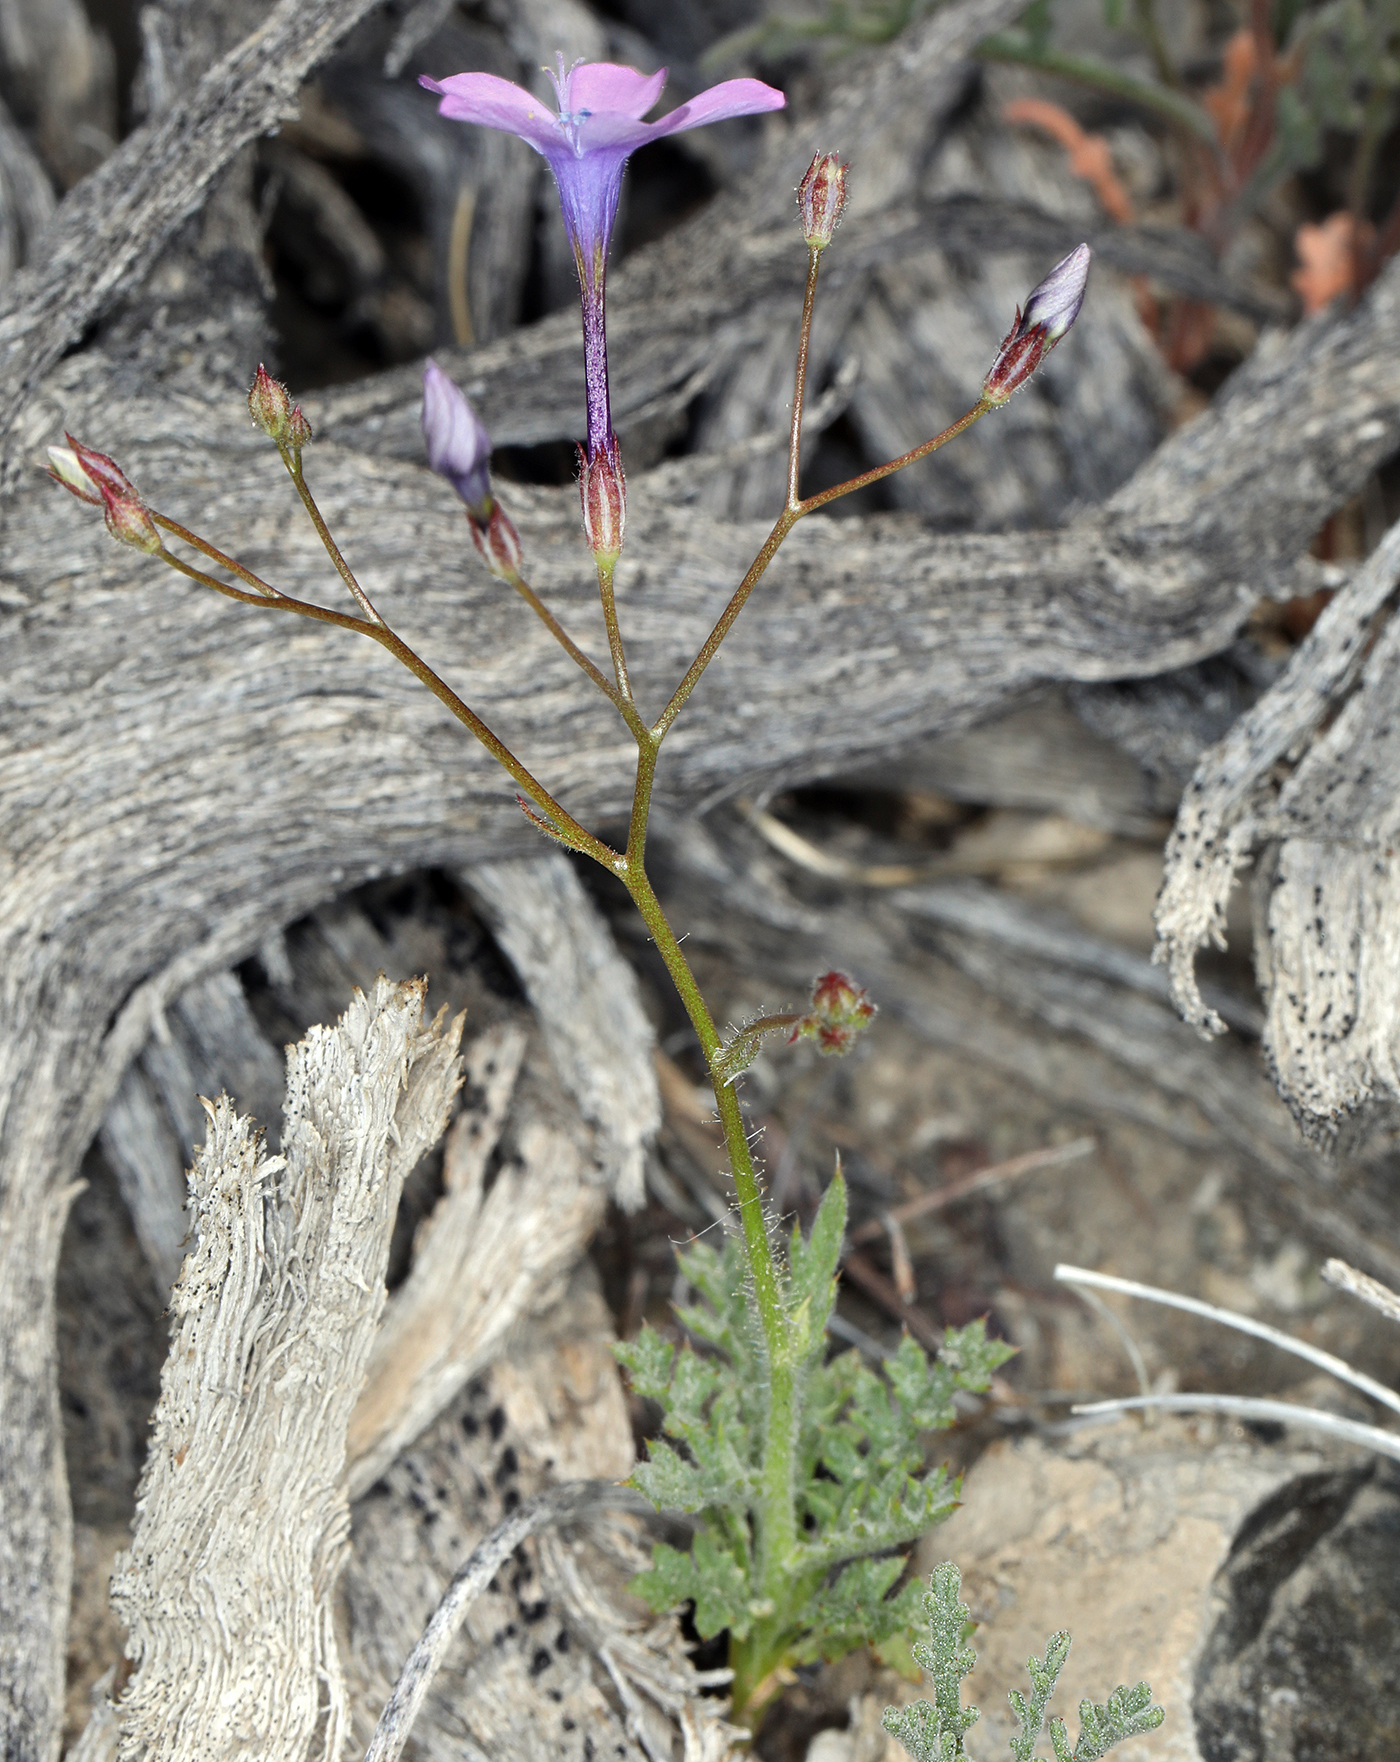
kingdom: Plantae
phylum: Tracheophyta
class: Magnoliopsida
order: Ericales
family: Polemoniaceae
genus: Gilia
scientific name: Gilia cana
